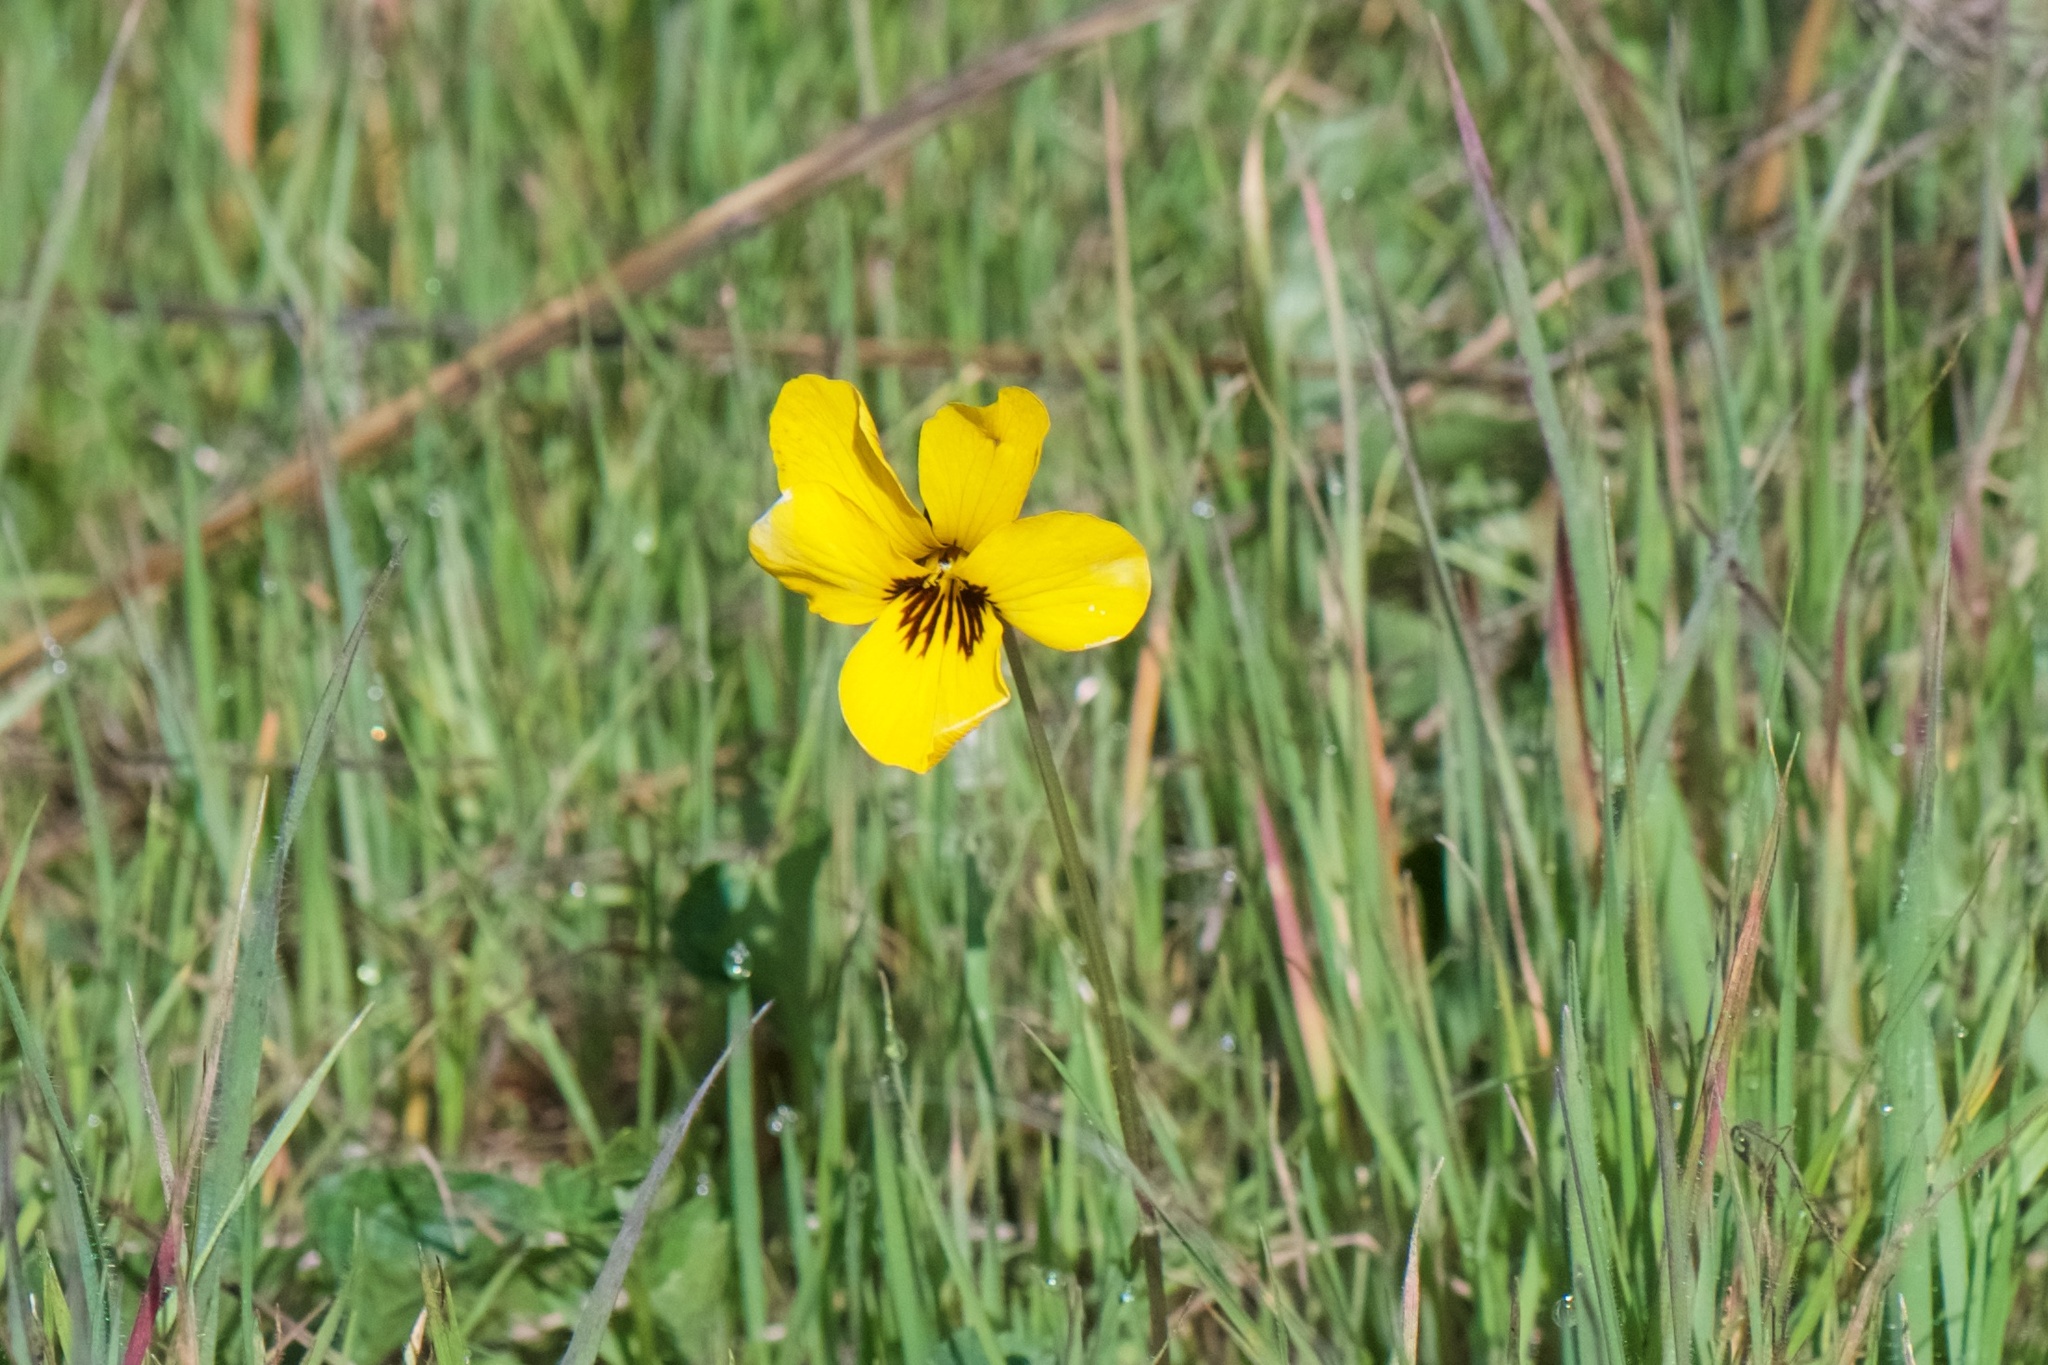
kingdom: Plantae
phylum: Tracheophyta
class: Magnoliopsida
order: Malpighiales
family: Violaceae
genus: Viola
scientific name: Viola pedunculata
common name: California golden violet
